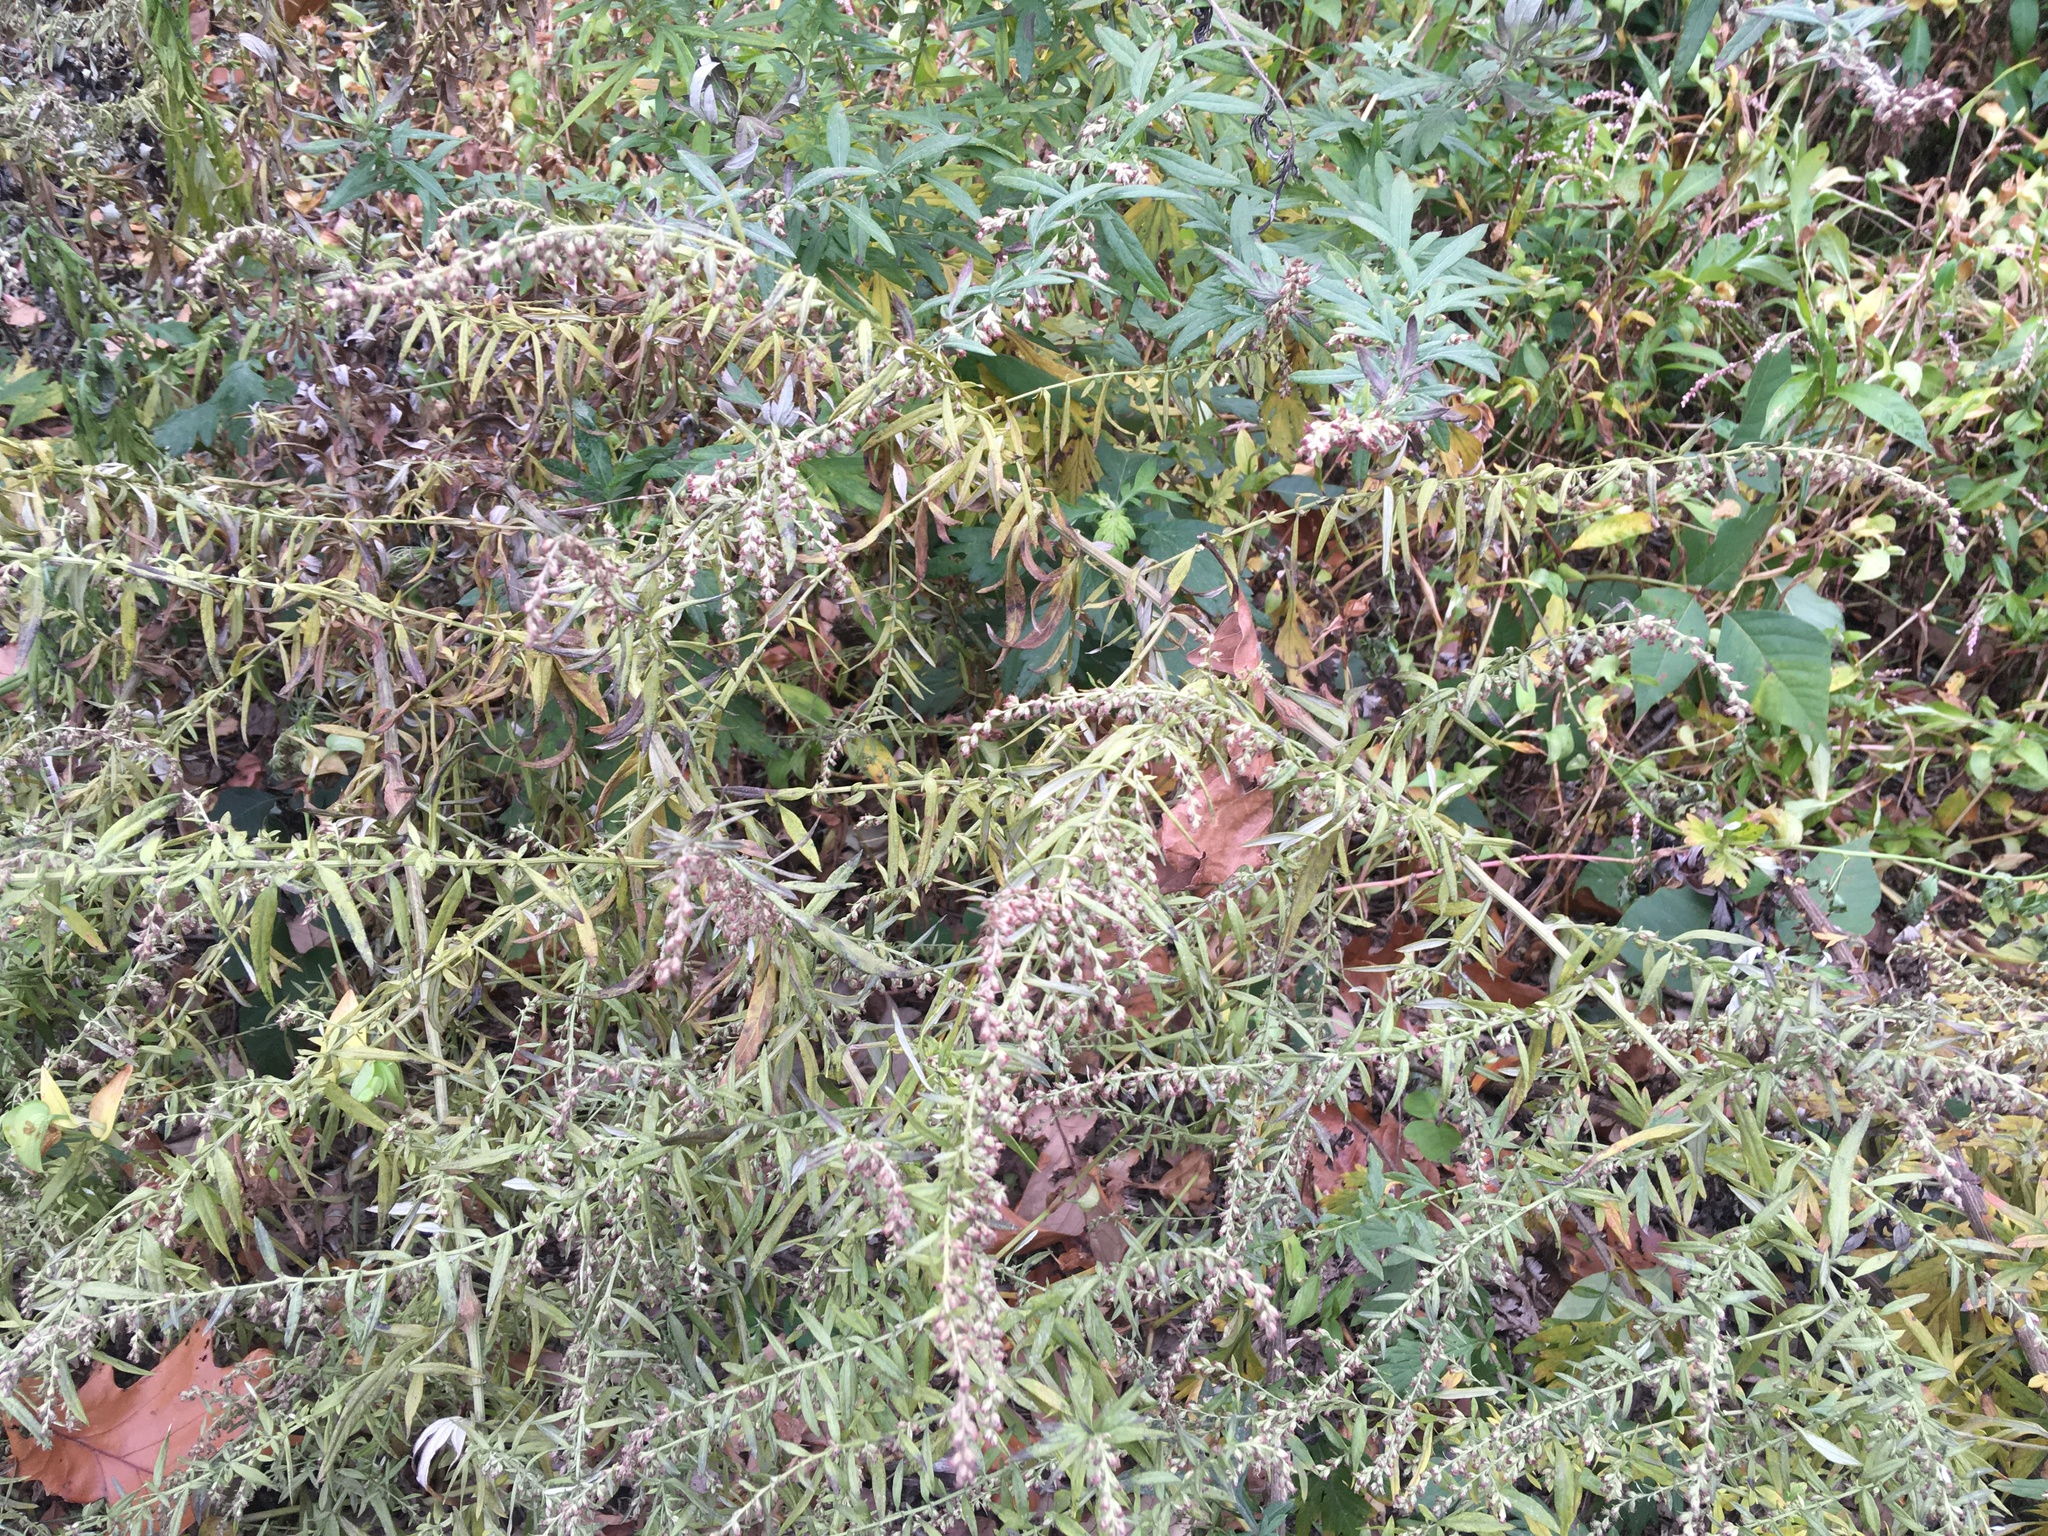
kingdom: Plantae
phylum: Tracheophyta
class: Magnoliopsida
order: Asterales
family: Asteraceae
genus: Artemisia
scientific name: Artemisia vulgaris
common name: Mugwort
